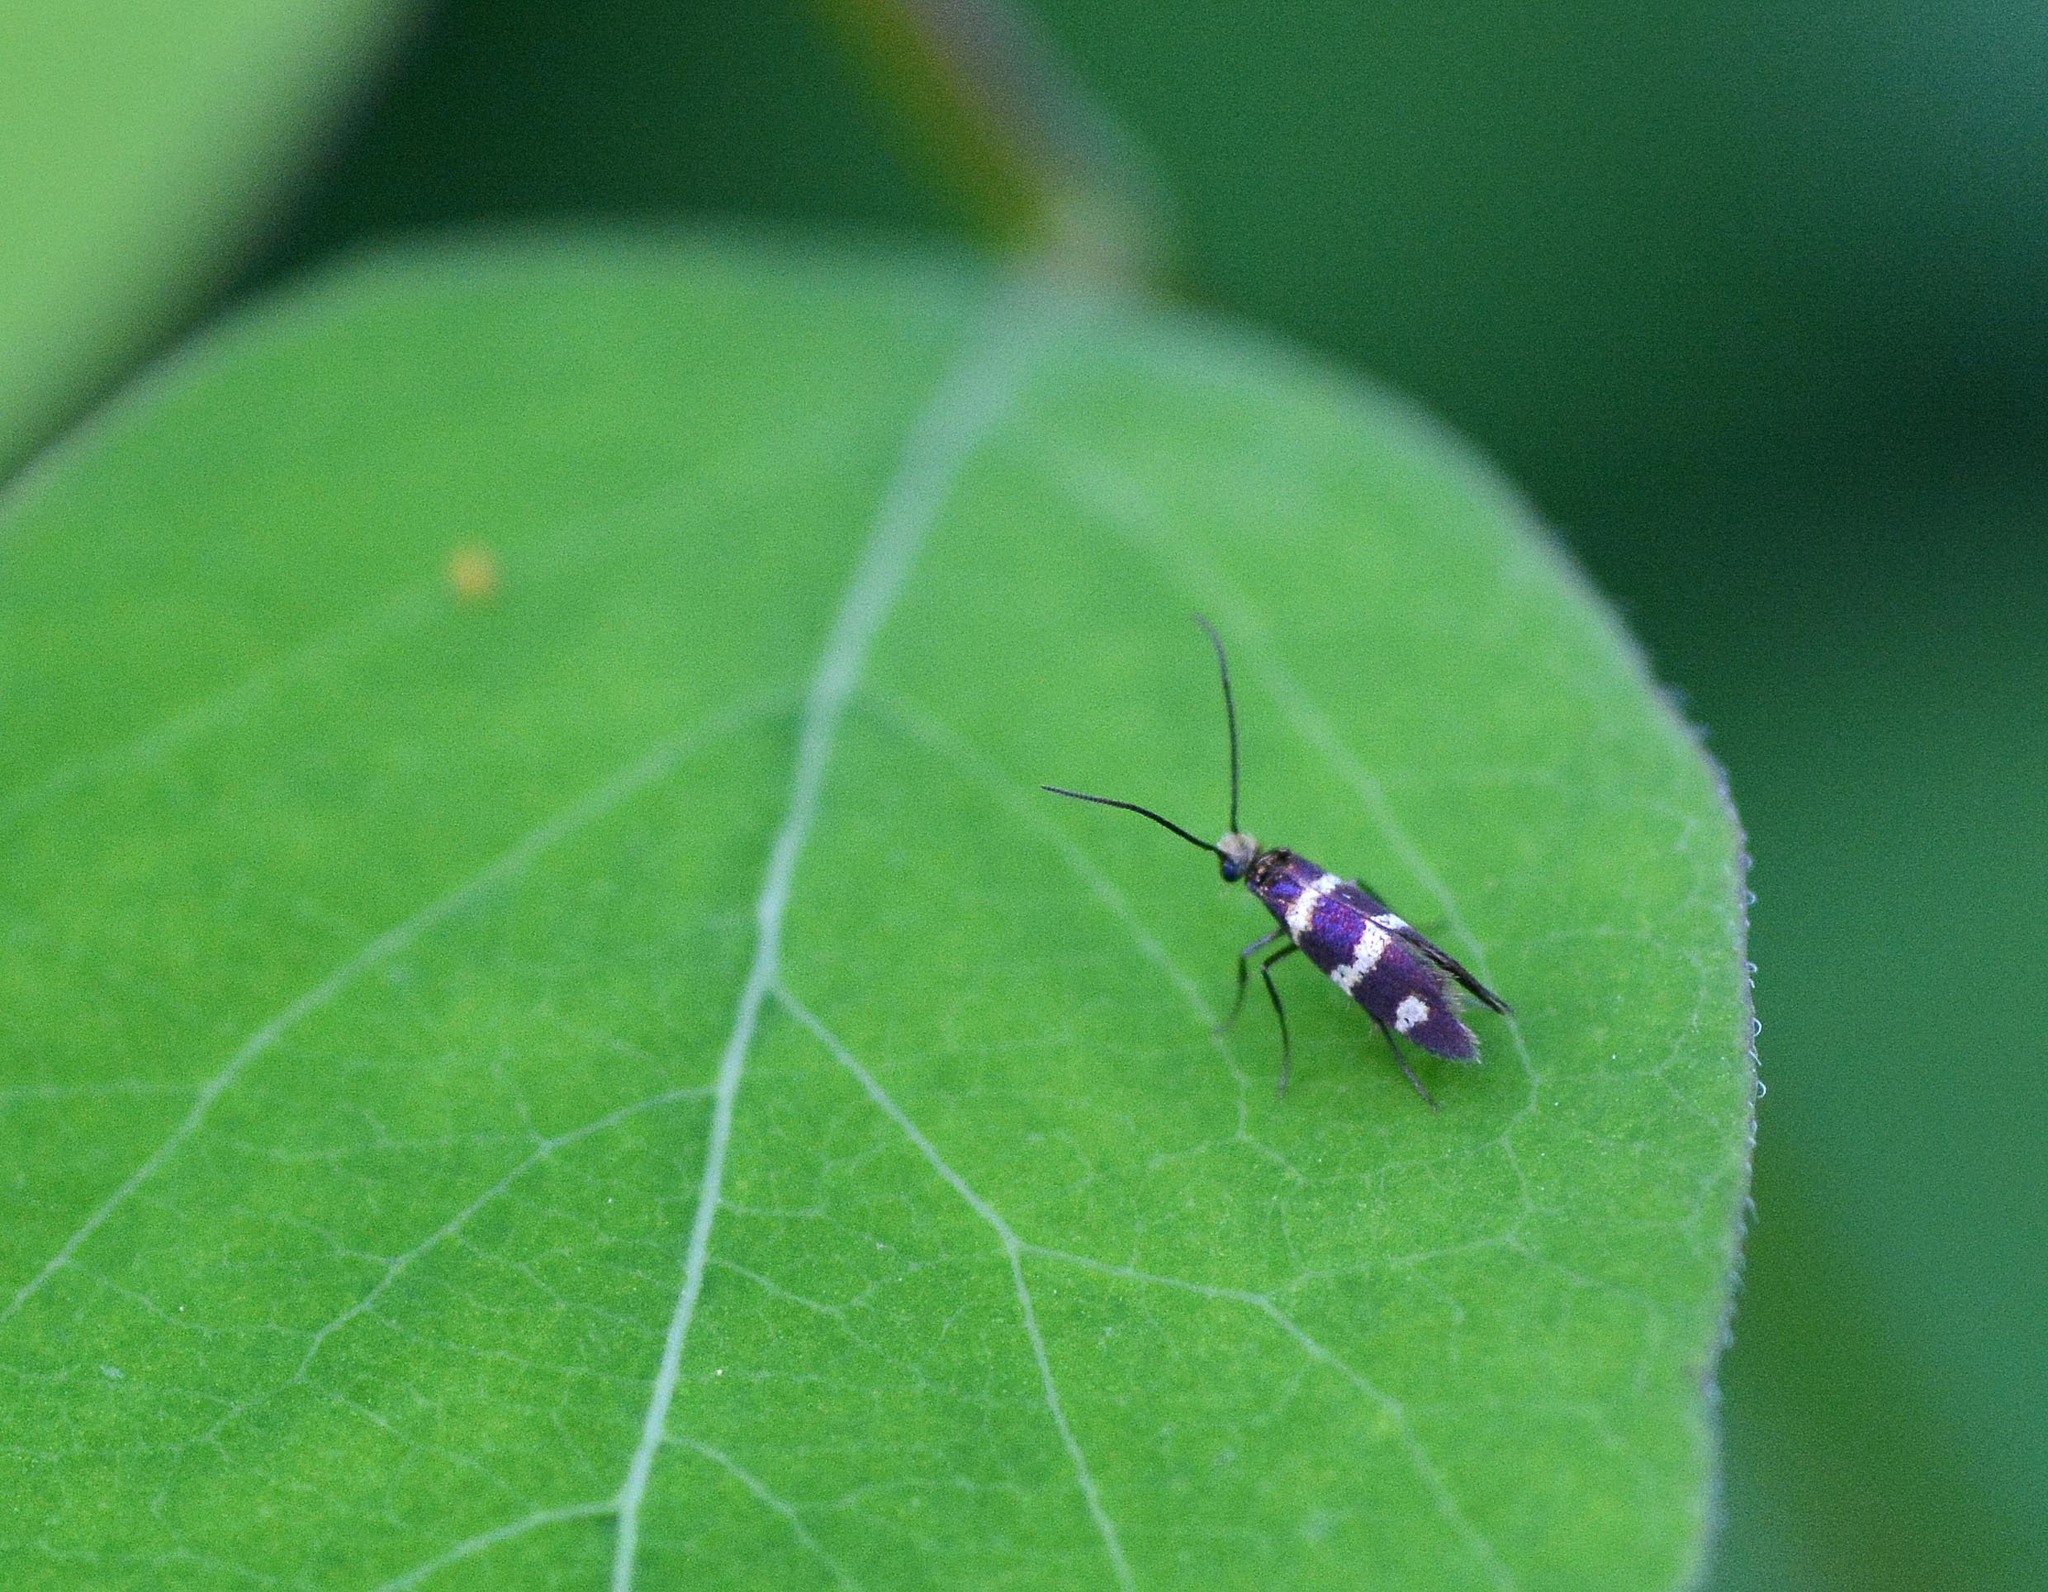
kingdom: Animalia
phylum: Arthropoda
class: Insecta
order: Lepidoptera
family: Micropterigidae
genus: Micropterix
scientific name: Micropterix aureatella
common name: Yellow-barred gold
